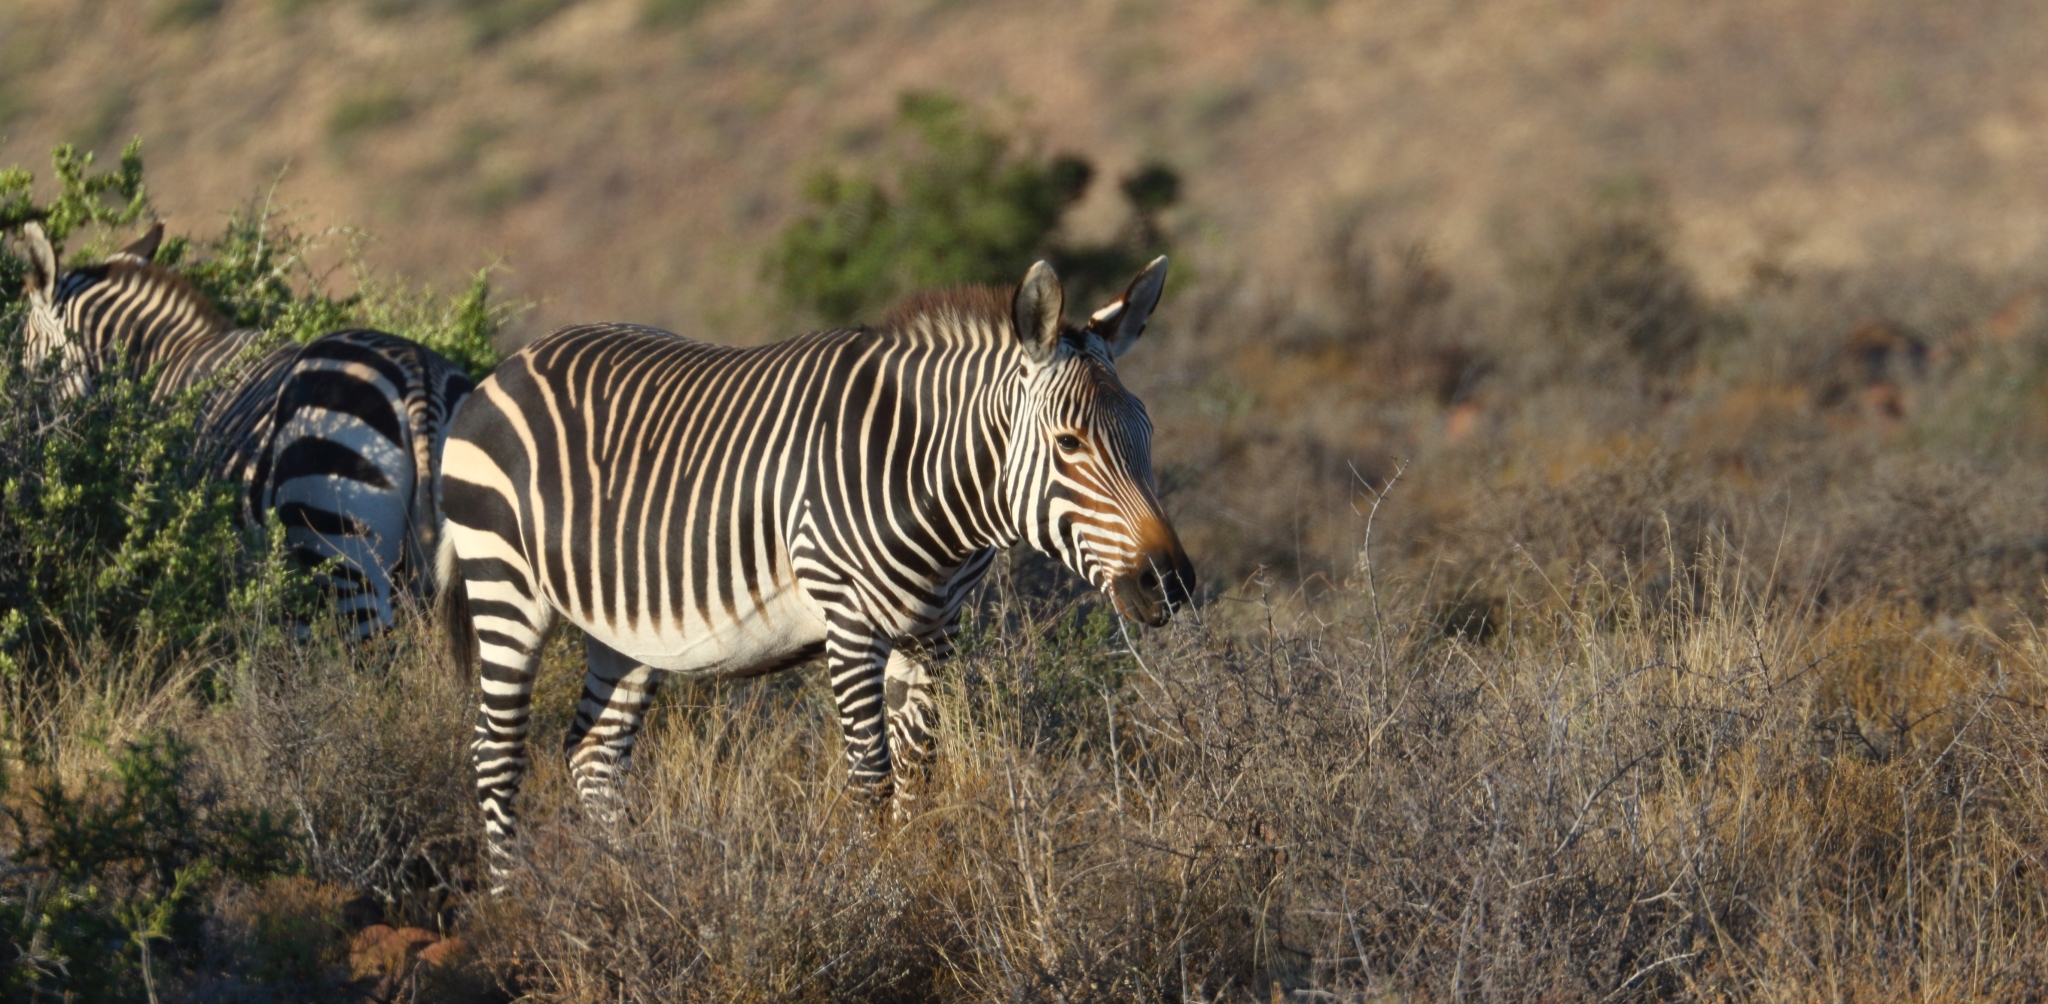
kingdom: Animalia
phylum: Chordata
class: Mammalia
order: Perissodactyla
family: Equidae
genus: Equus
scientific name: Equus zebra
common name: Mountain zebra
